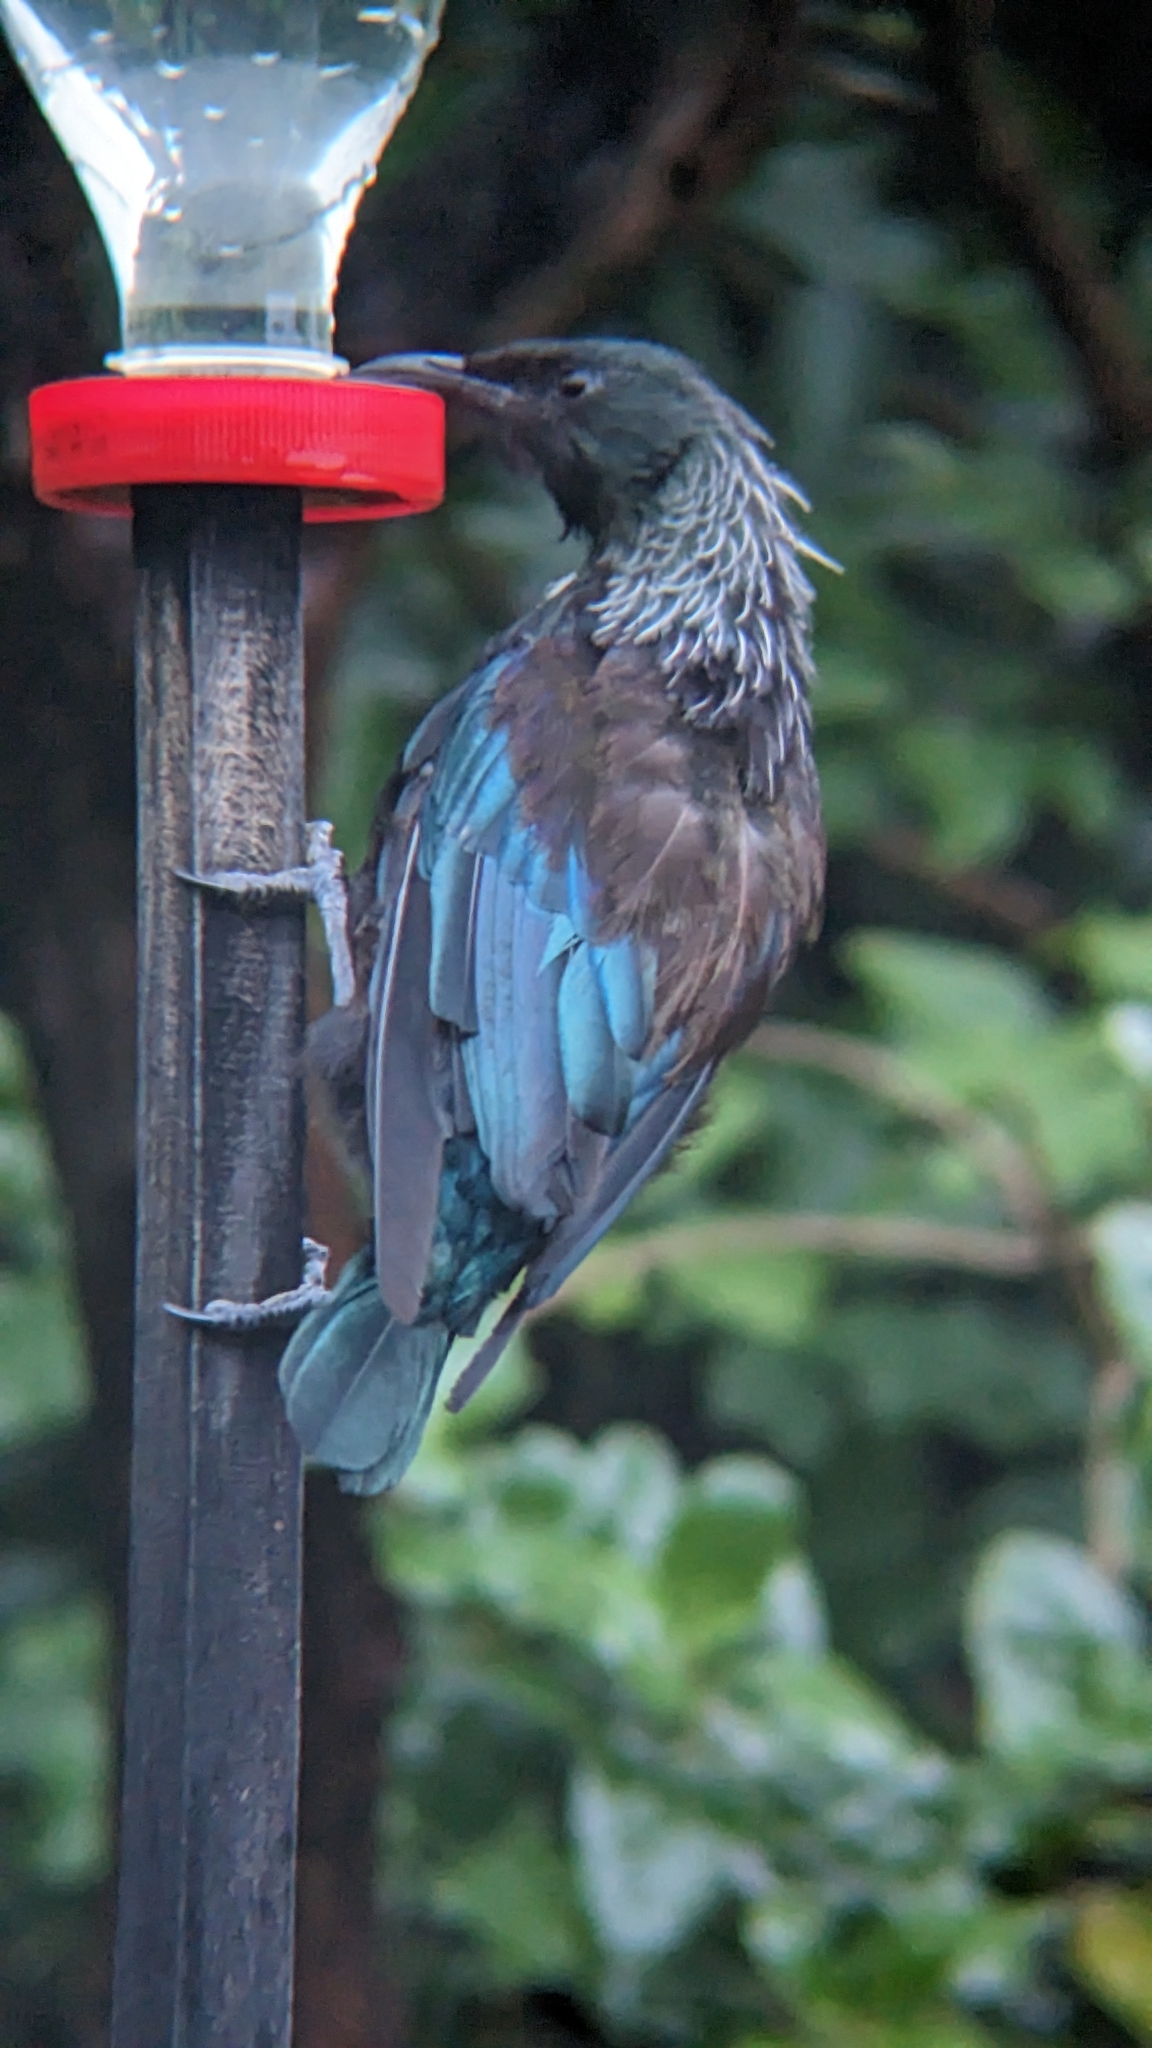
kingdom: Animalia
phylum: Chordata
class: Aves
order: Passeriformes
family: Meliphagidae
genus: Prosthemadera
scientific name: Prosthemadera novaeseelandiae
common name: Tui
